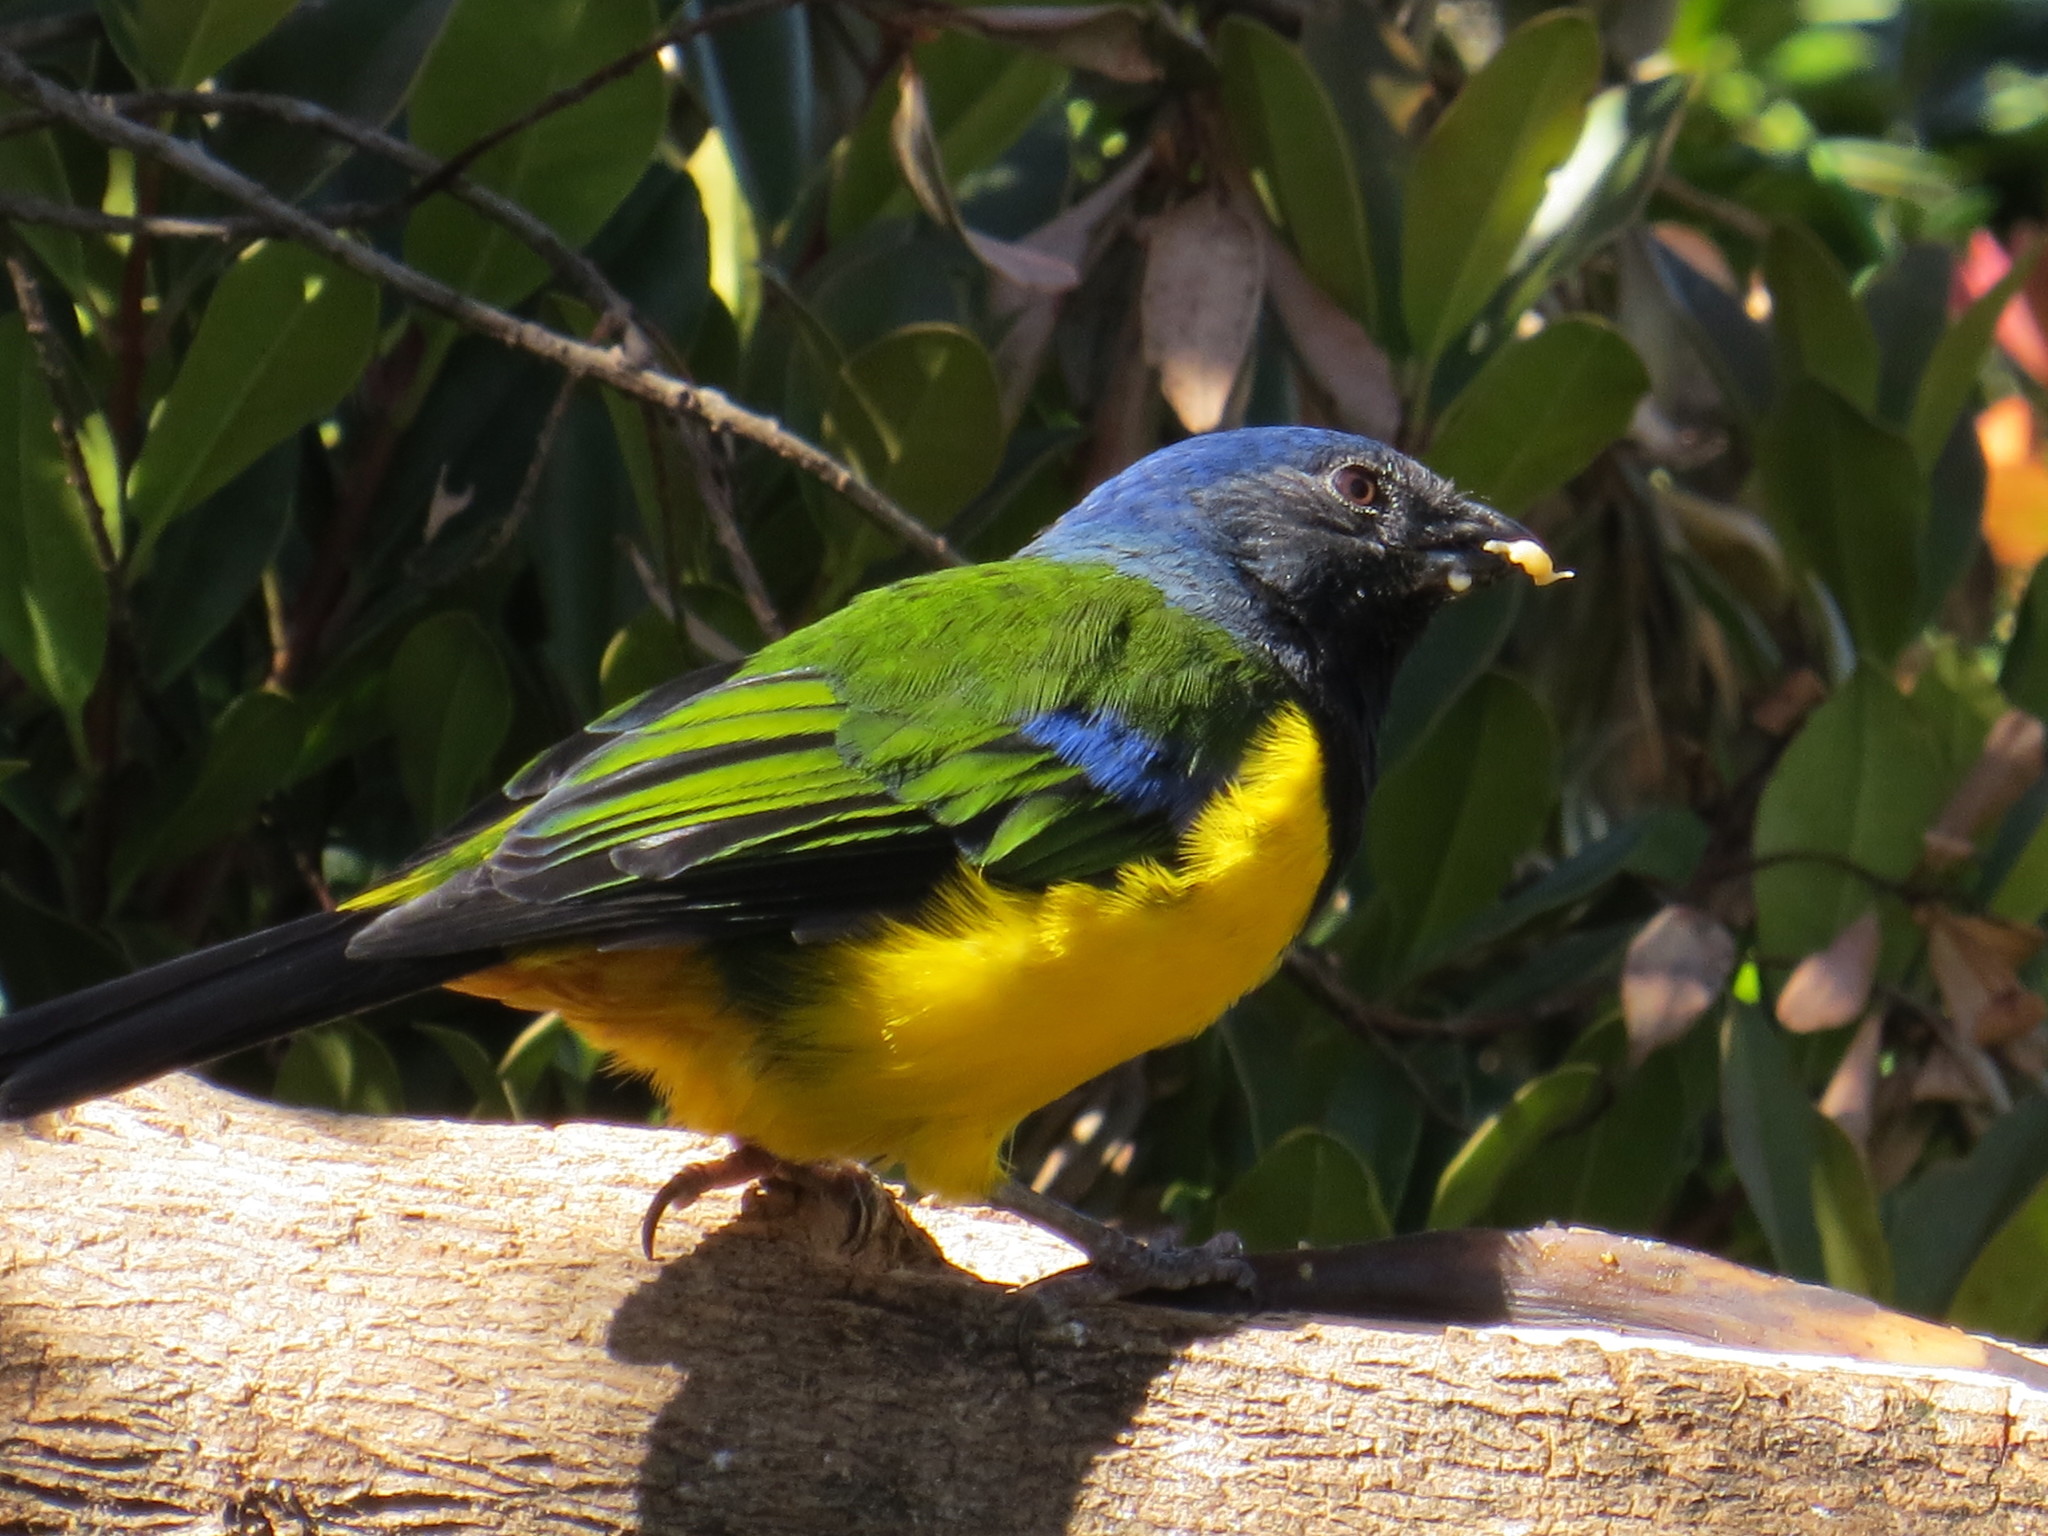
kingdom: Animalia
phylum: Chordata
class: Aves
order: Passeriformes
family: Thraupidae
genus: Cnemathraupis
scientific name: Cnemathraupis eximia
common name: Black-chested mountain-tanager
